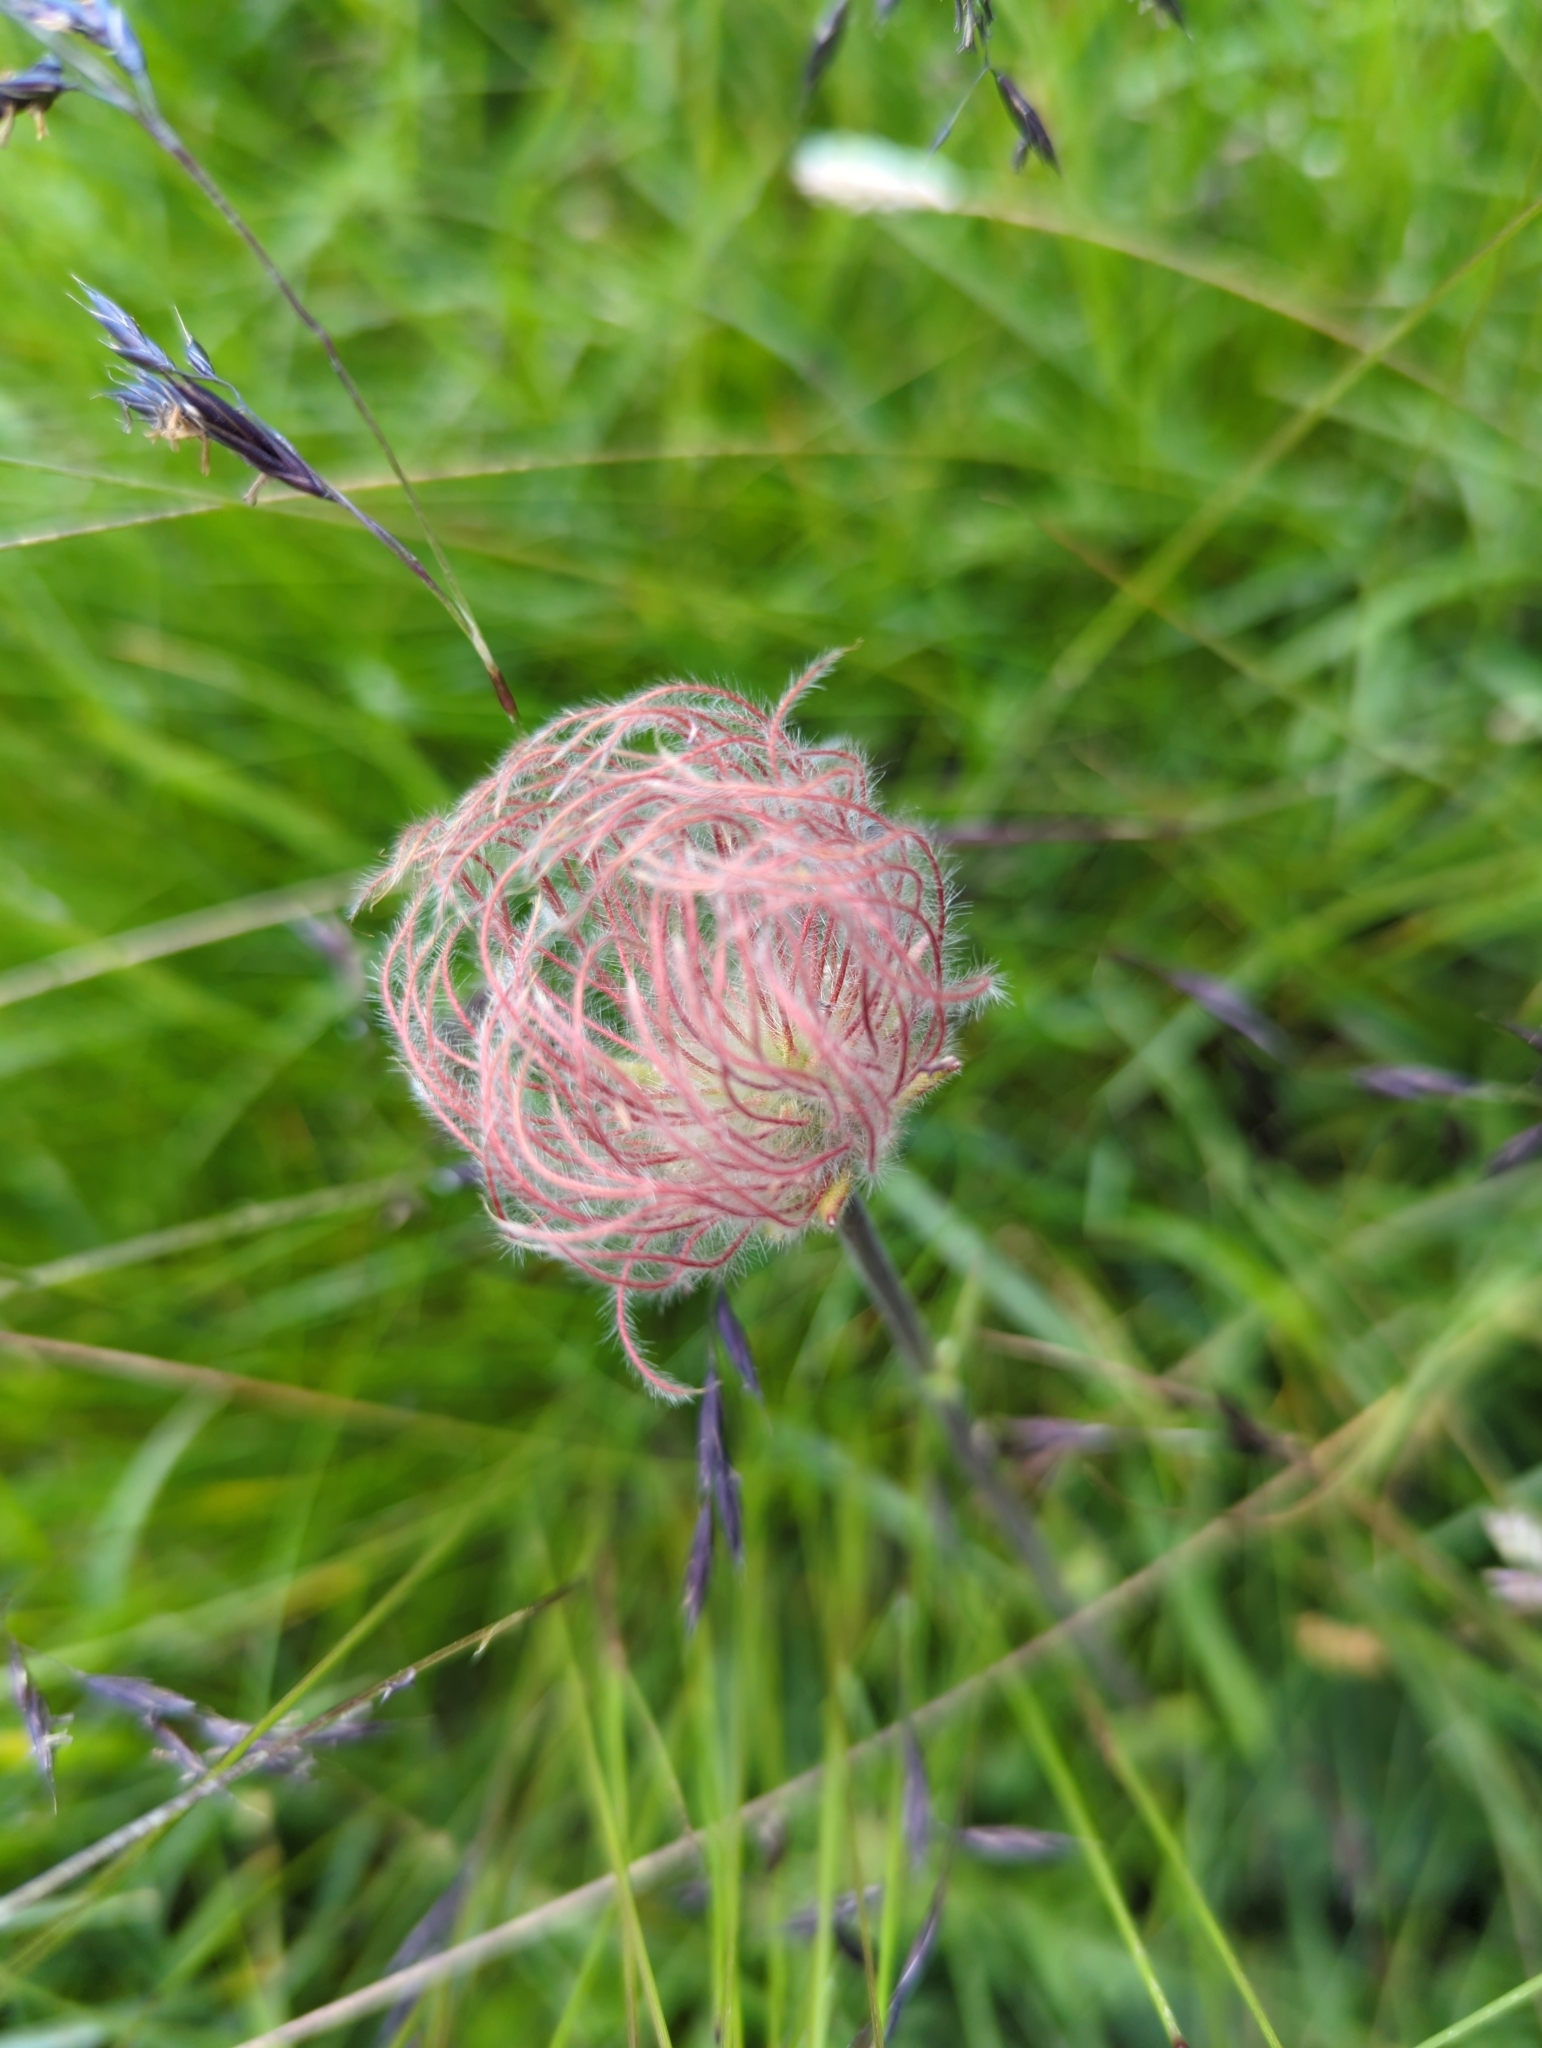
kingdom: Plantae
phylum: Tracheophyta
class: Magnoliopsida
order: Rosales
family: Rosaceae
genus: Geum
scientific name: Geum montanum
